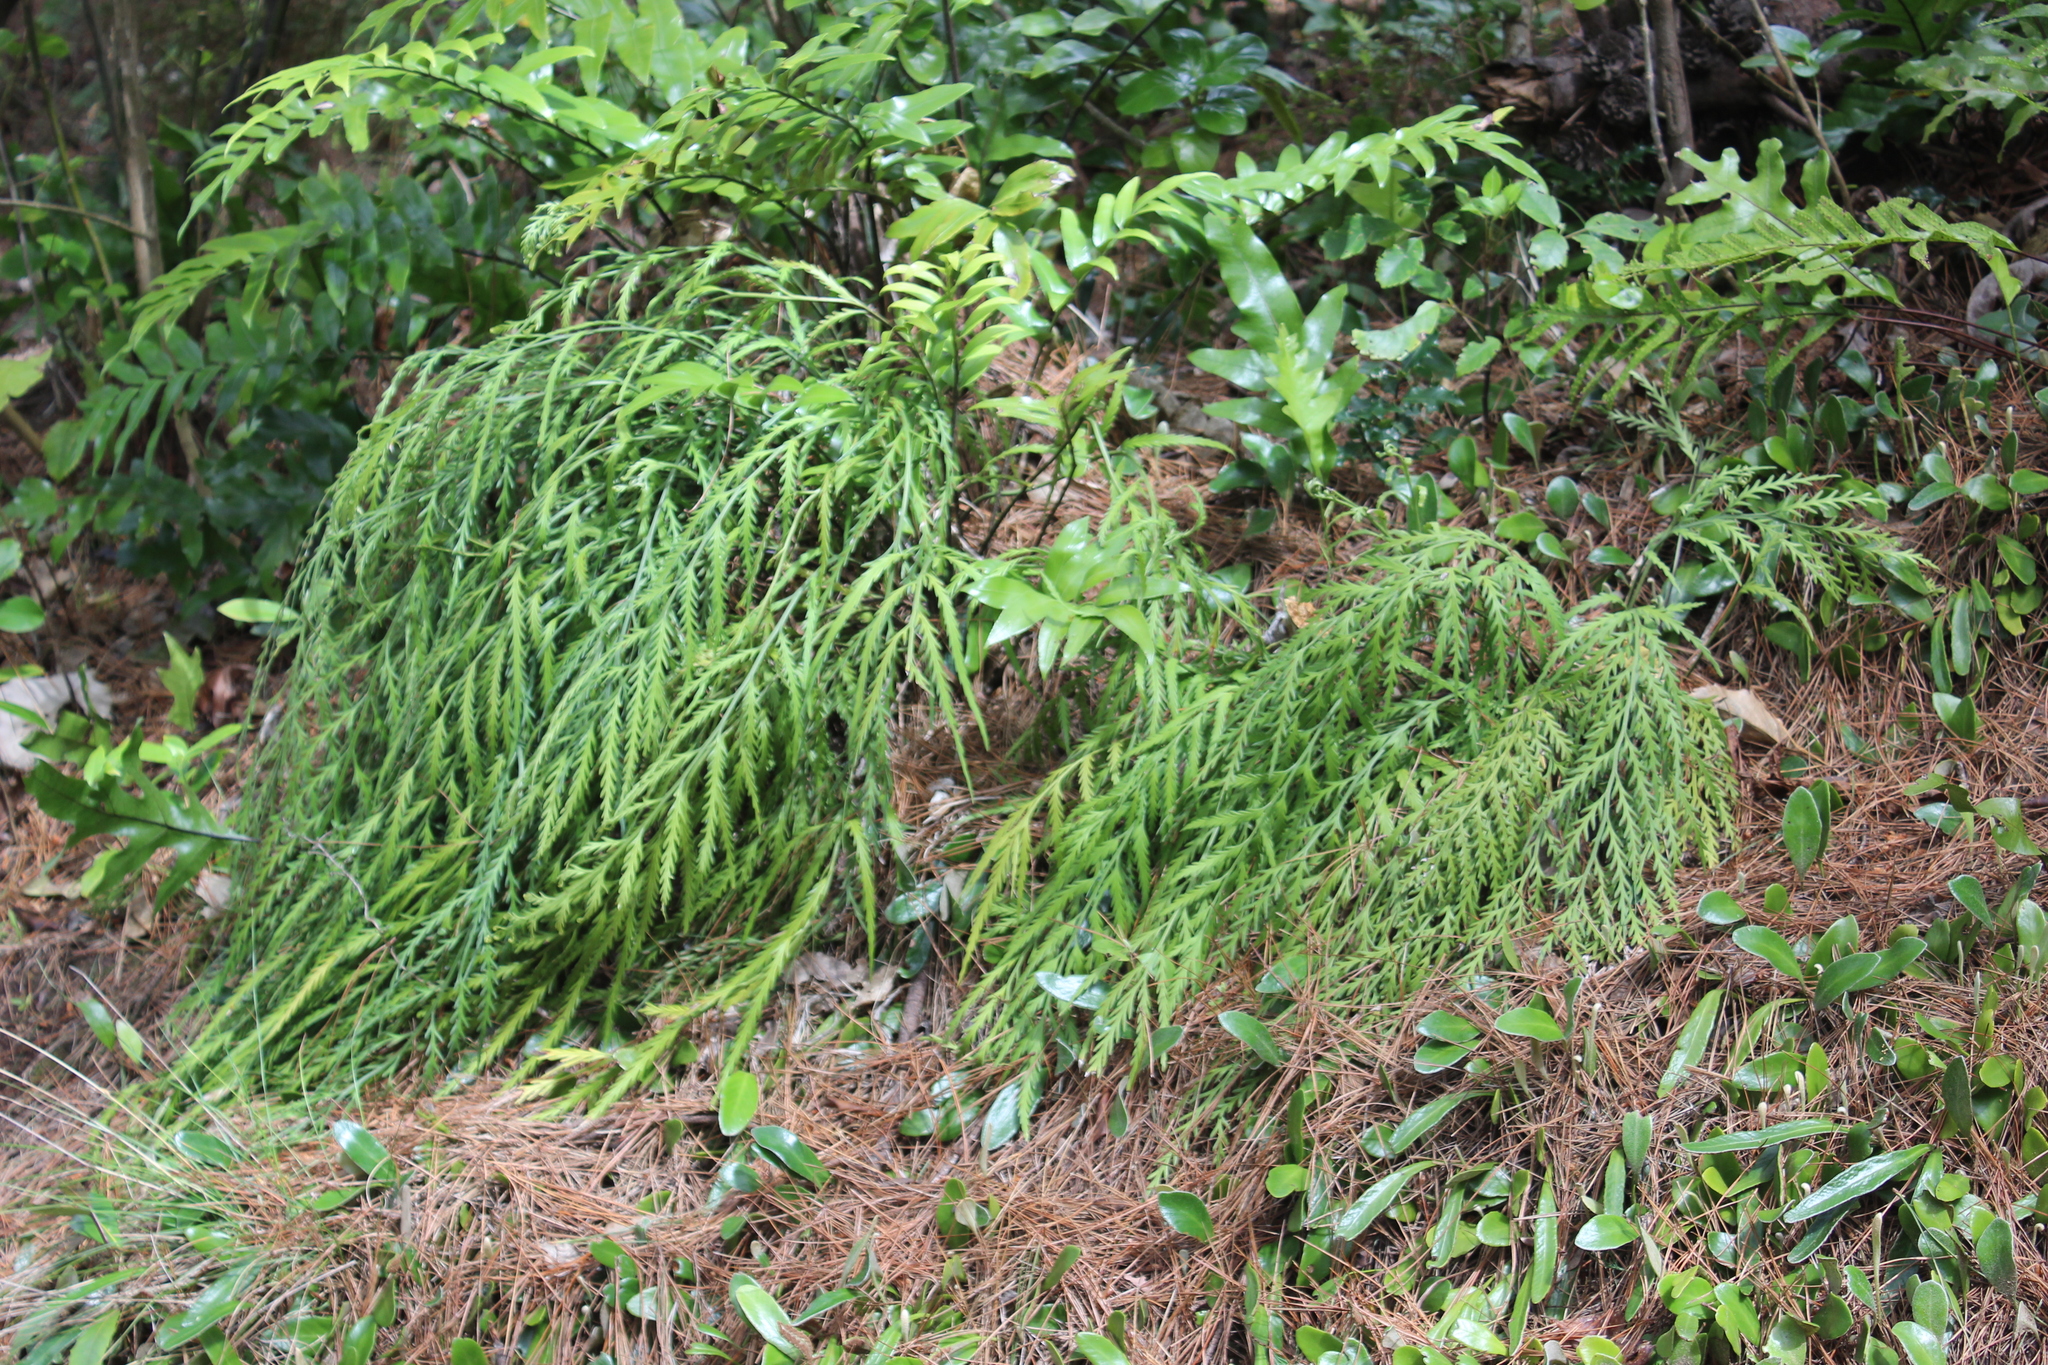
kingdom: Plantae
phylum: Tracheophyta
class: Polypodiopsida
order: Polypodiales
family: Aspleniaceae
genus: Asplenium
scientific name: Asplenium flaccidum
